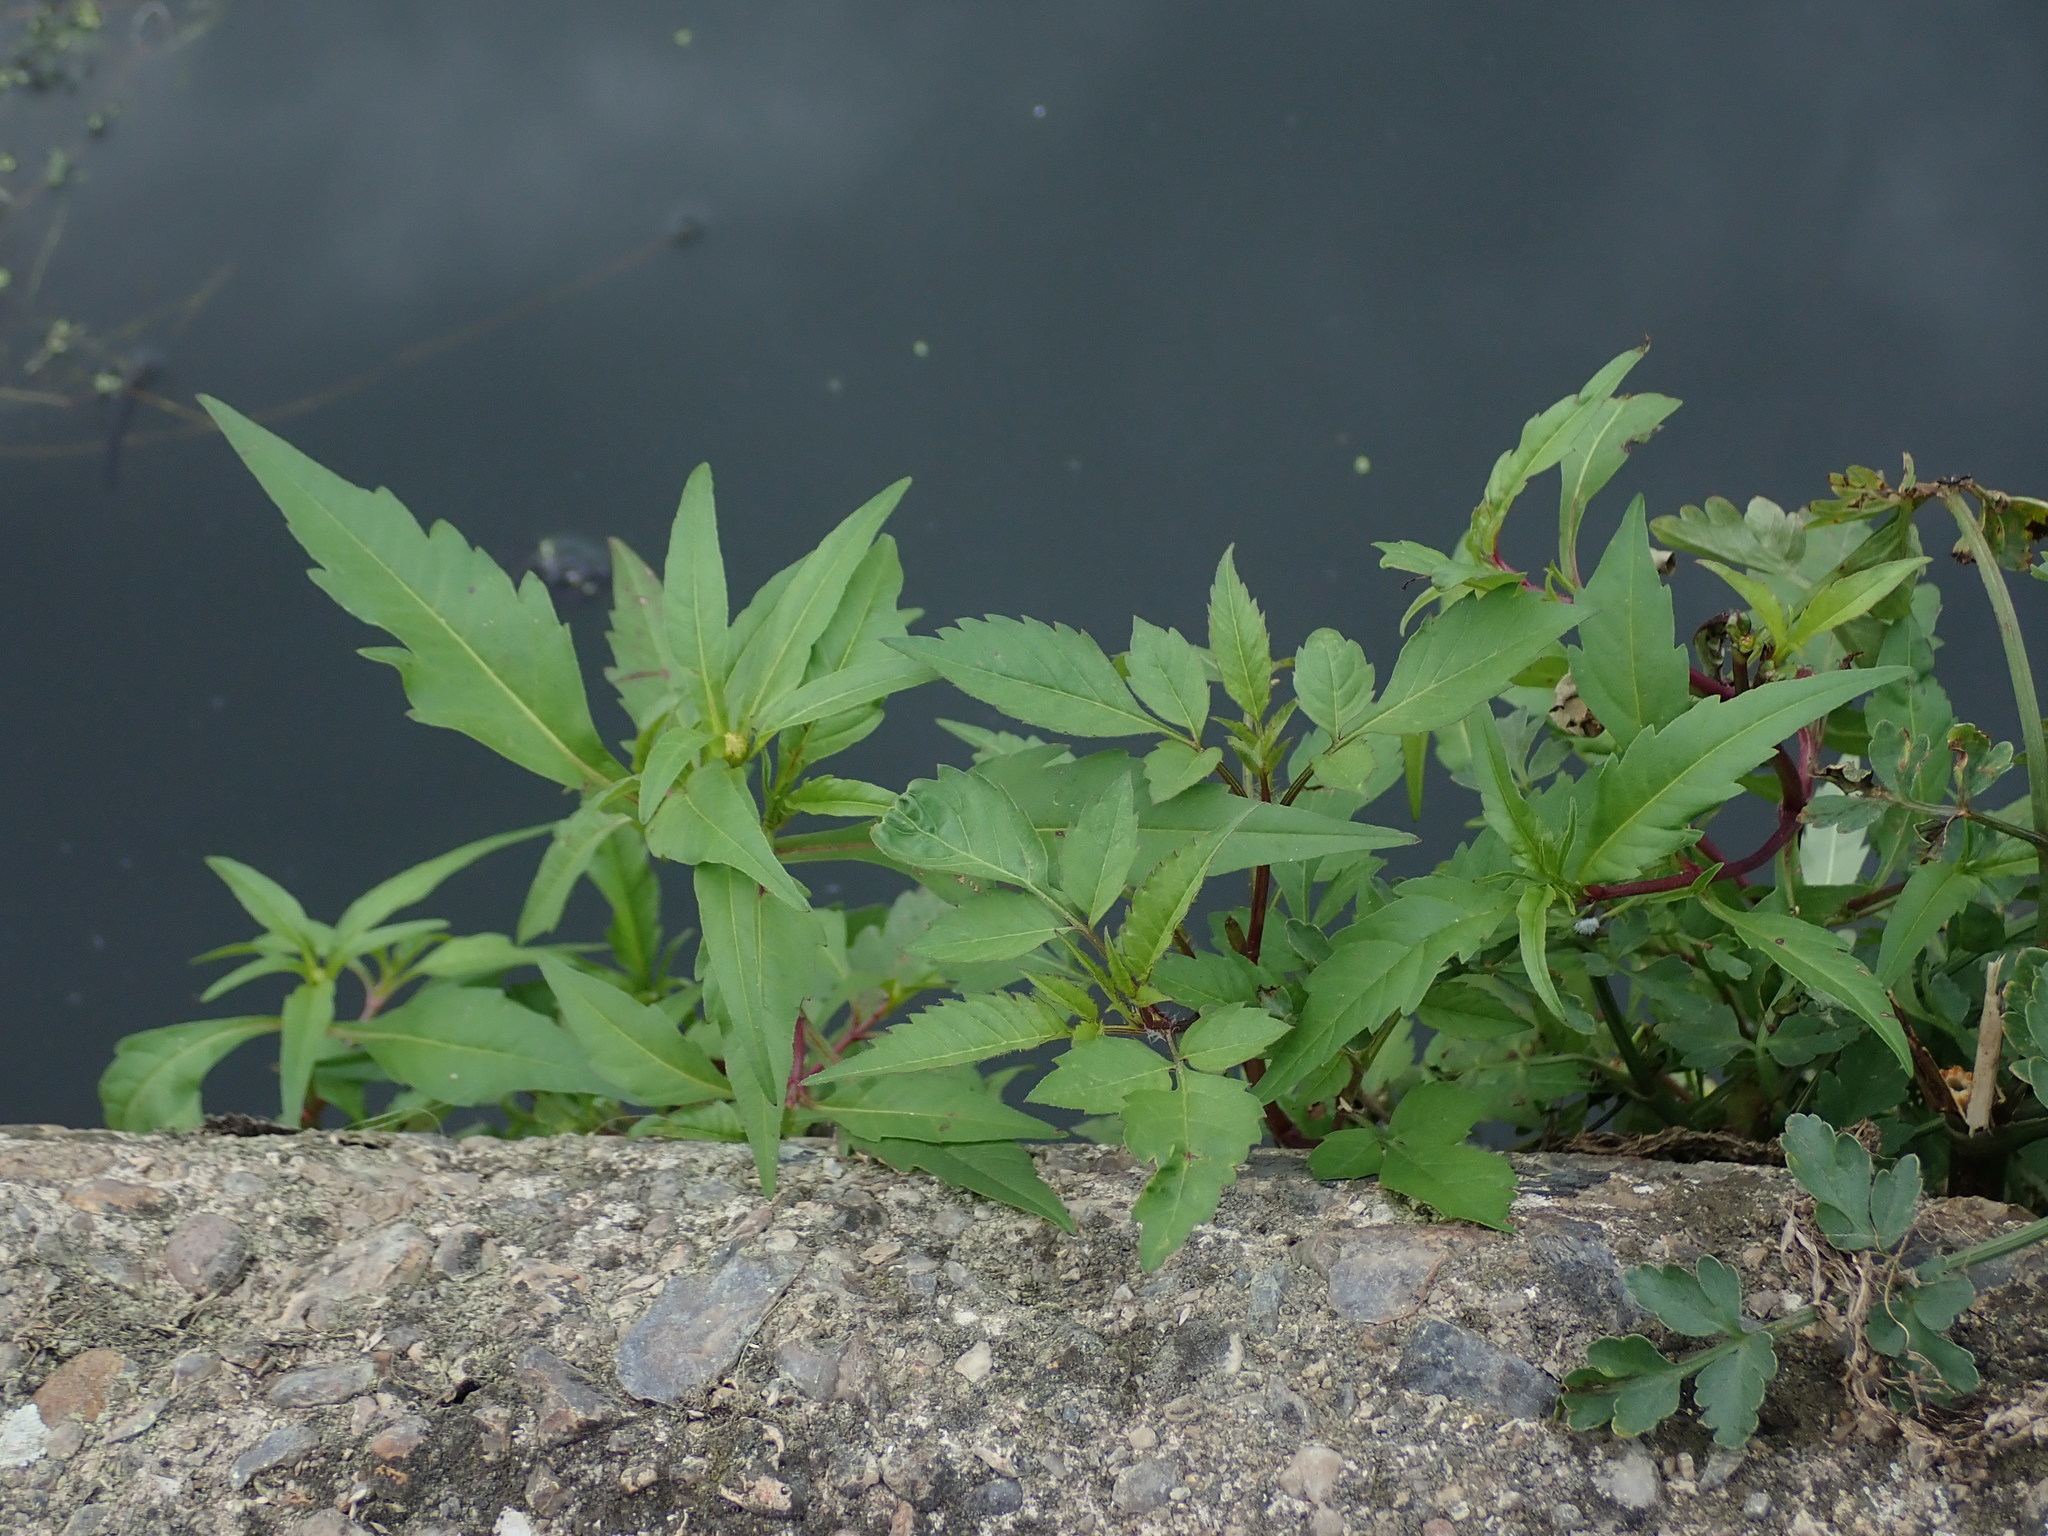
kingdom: Plantae
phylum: Tracheophyta
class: Magnoliopsida
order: Asterales
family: Asteraceae
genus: Bidens
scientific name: Bidens frondosa
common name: Beggarticks
